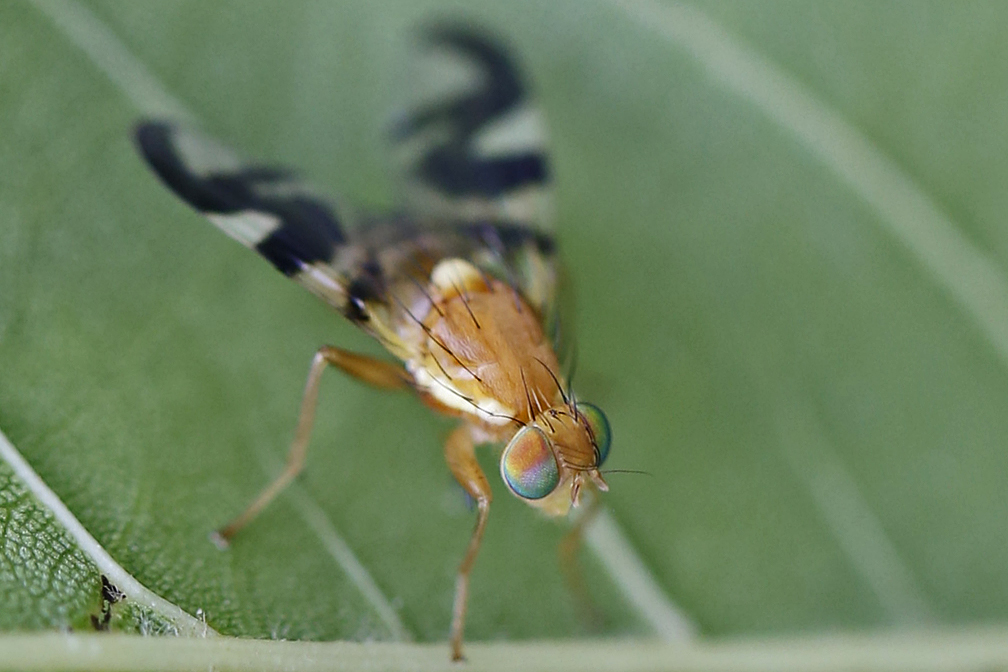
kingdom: Animalia
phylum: Arthropoda
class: Insecta
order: Diptera
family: Tephritidae
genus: Rhagoletis
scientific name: Rhagoletis suavis
